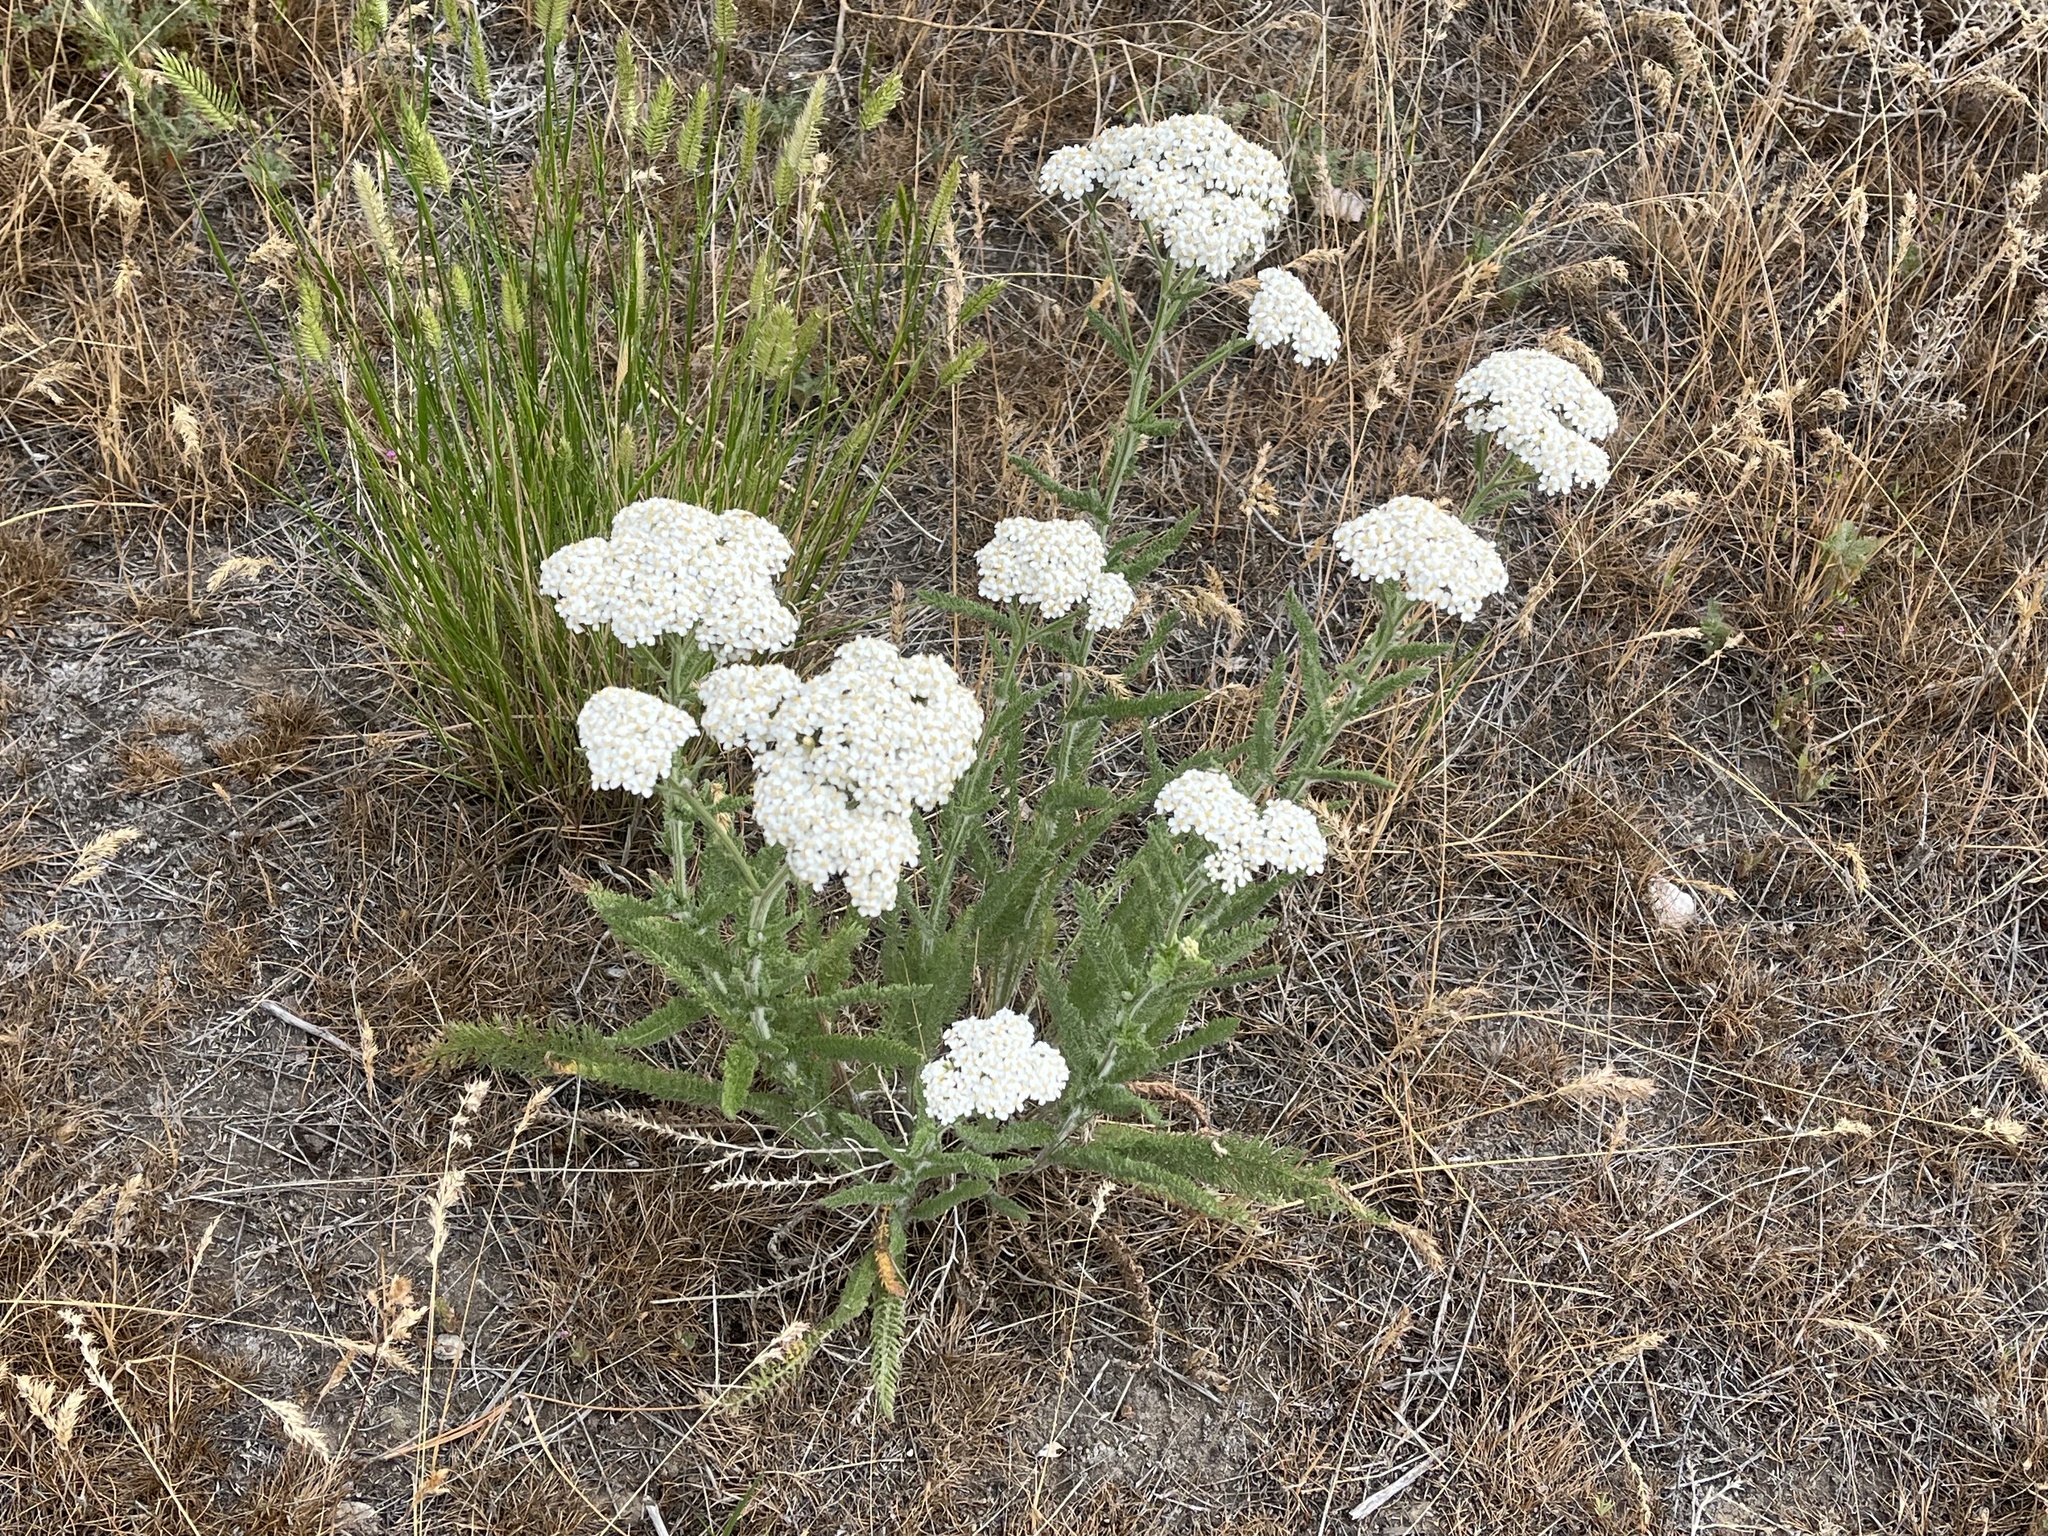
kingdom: Plantae
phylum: Tracheophyta
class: Magnoliopsida
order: Asterales
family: Asteraceae
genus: Achillea
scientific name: Achillea millefolium
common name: Yarrow
